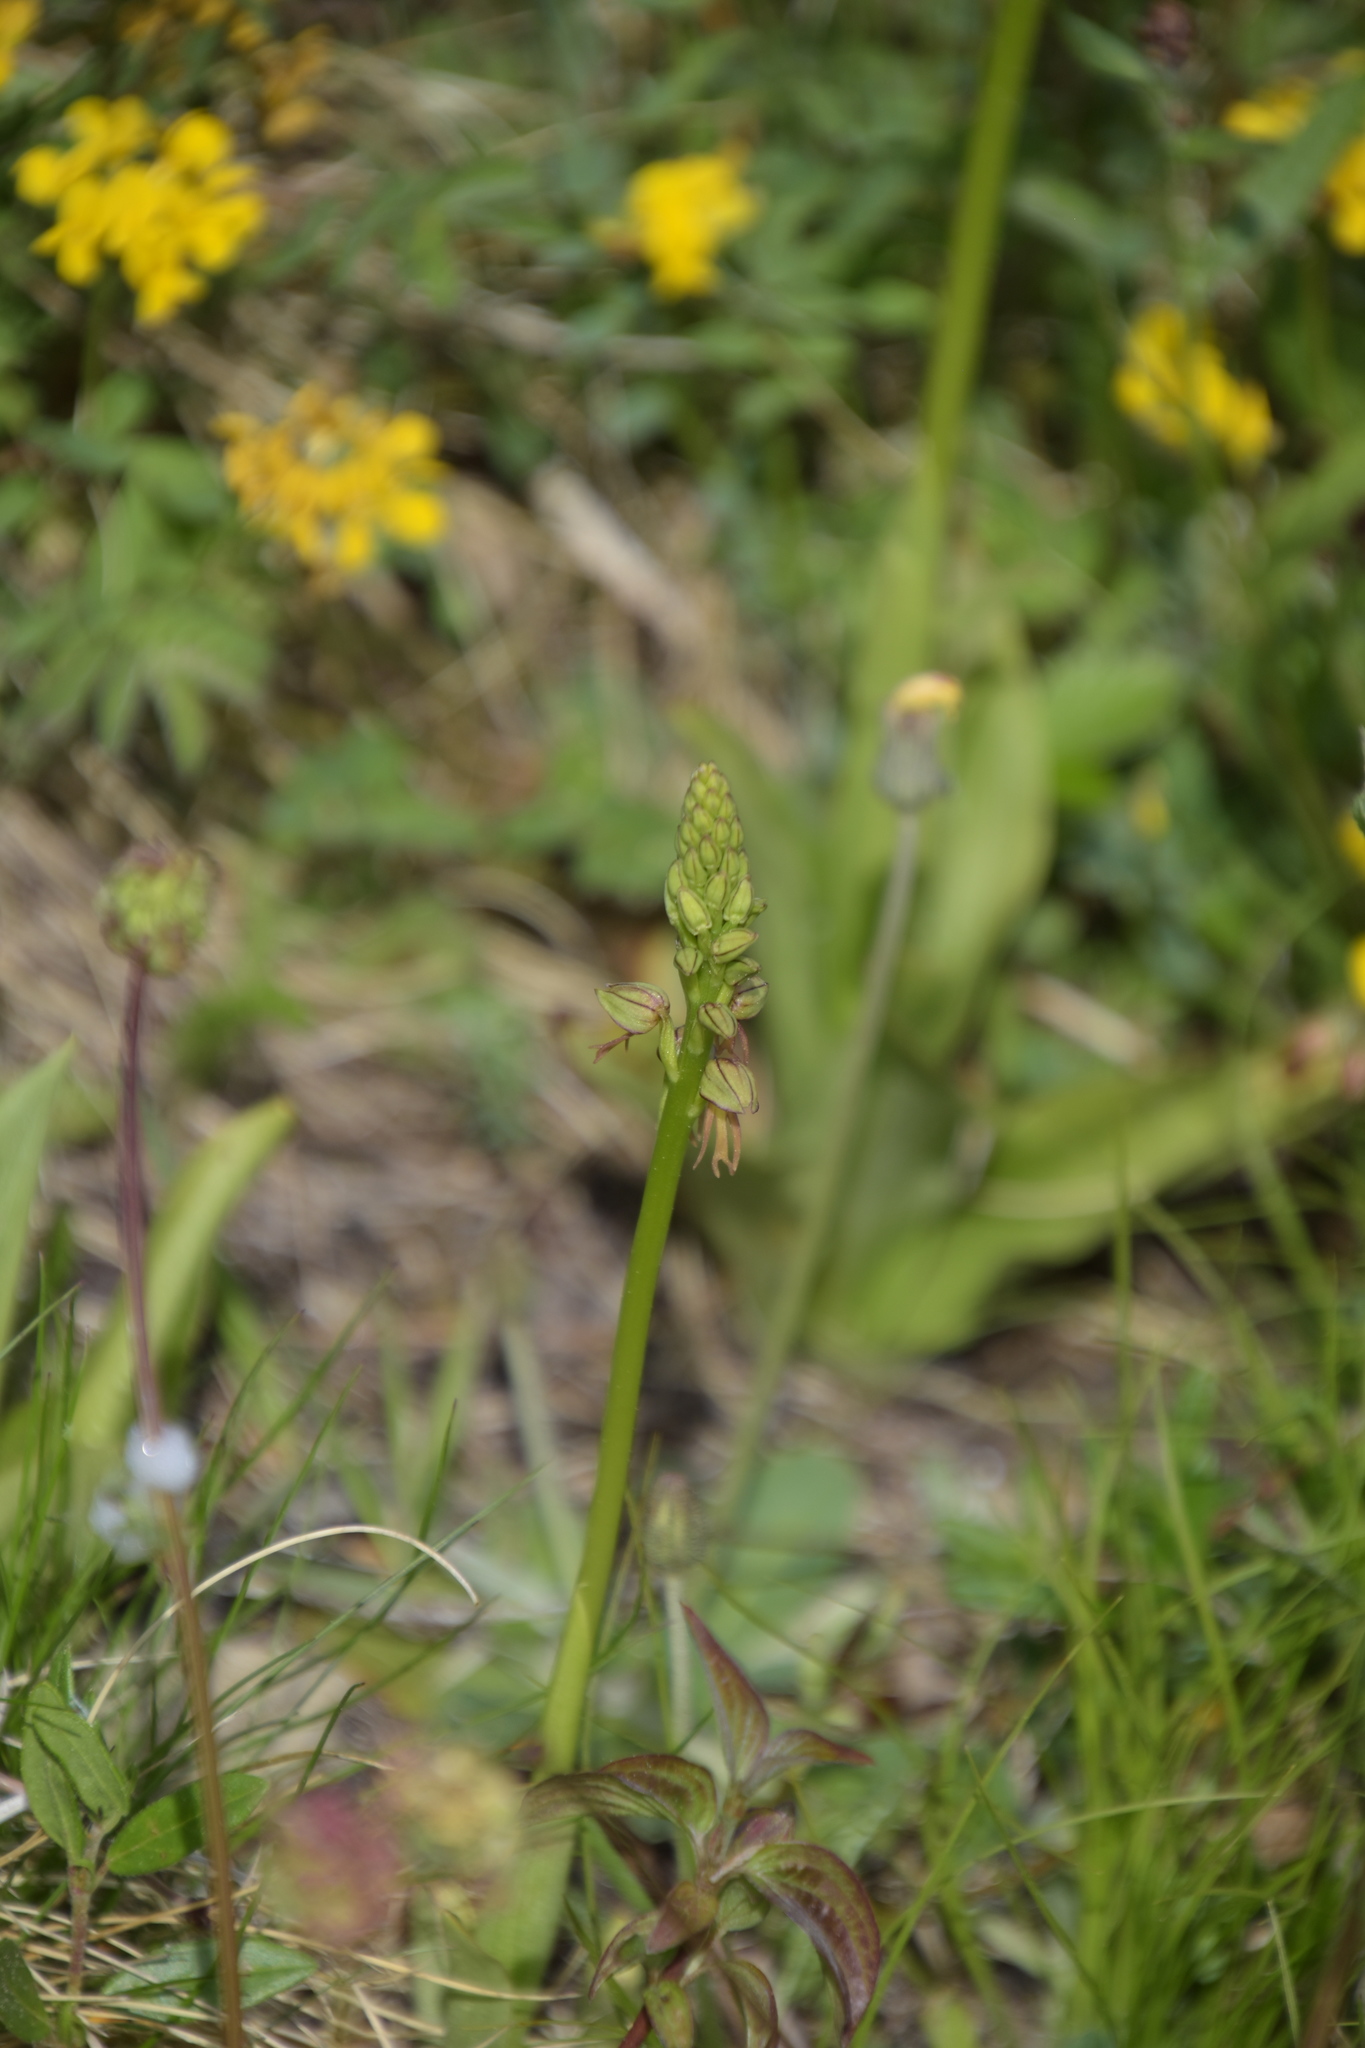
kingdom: Plantae
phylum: Tracheophyta
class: Liliopsida
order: Asparagales
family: Orchidaceae
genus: Orchis
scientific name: Orchis anthropophora
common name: Man orchid
